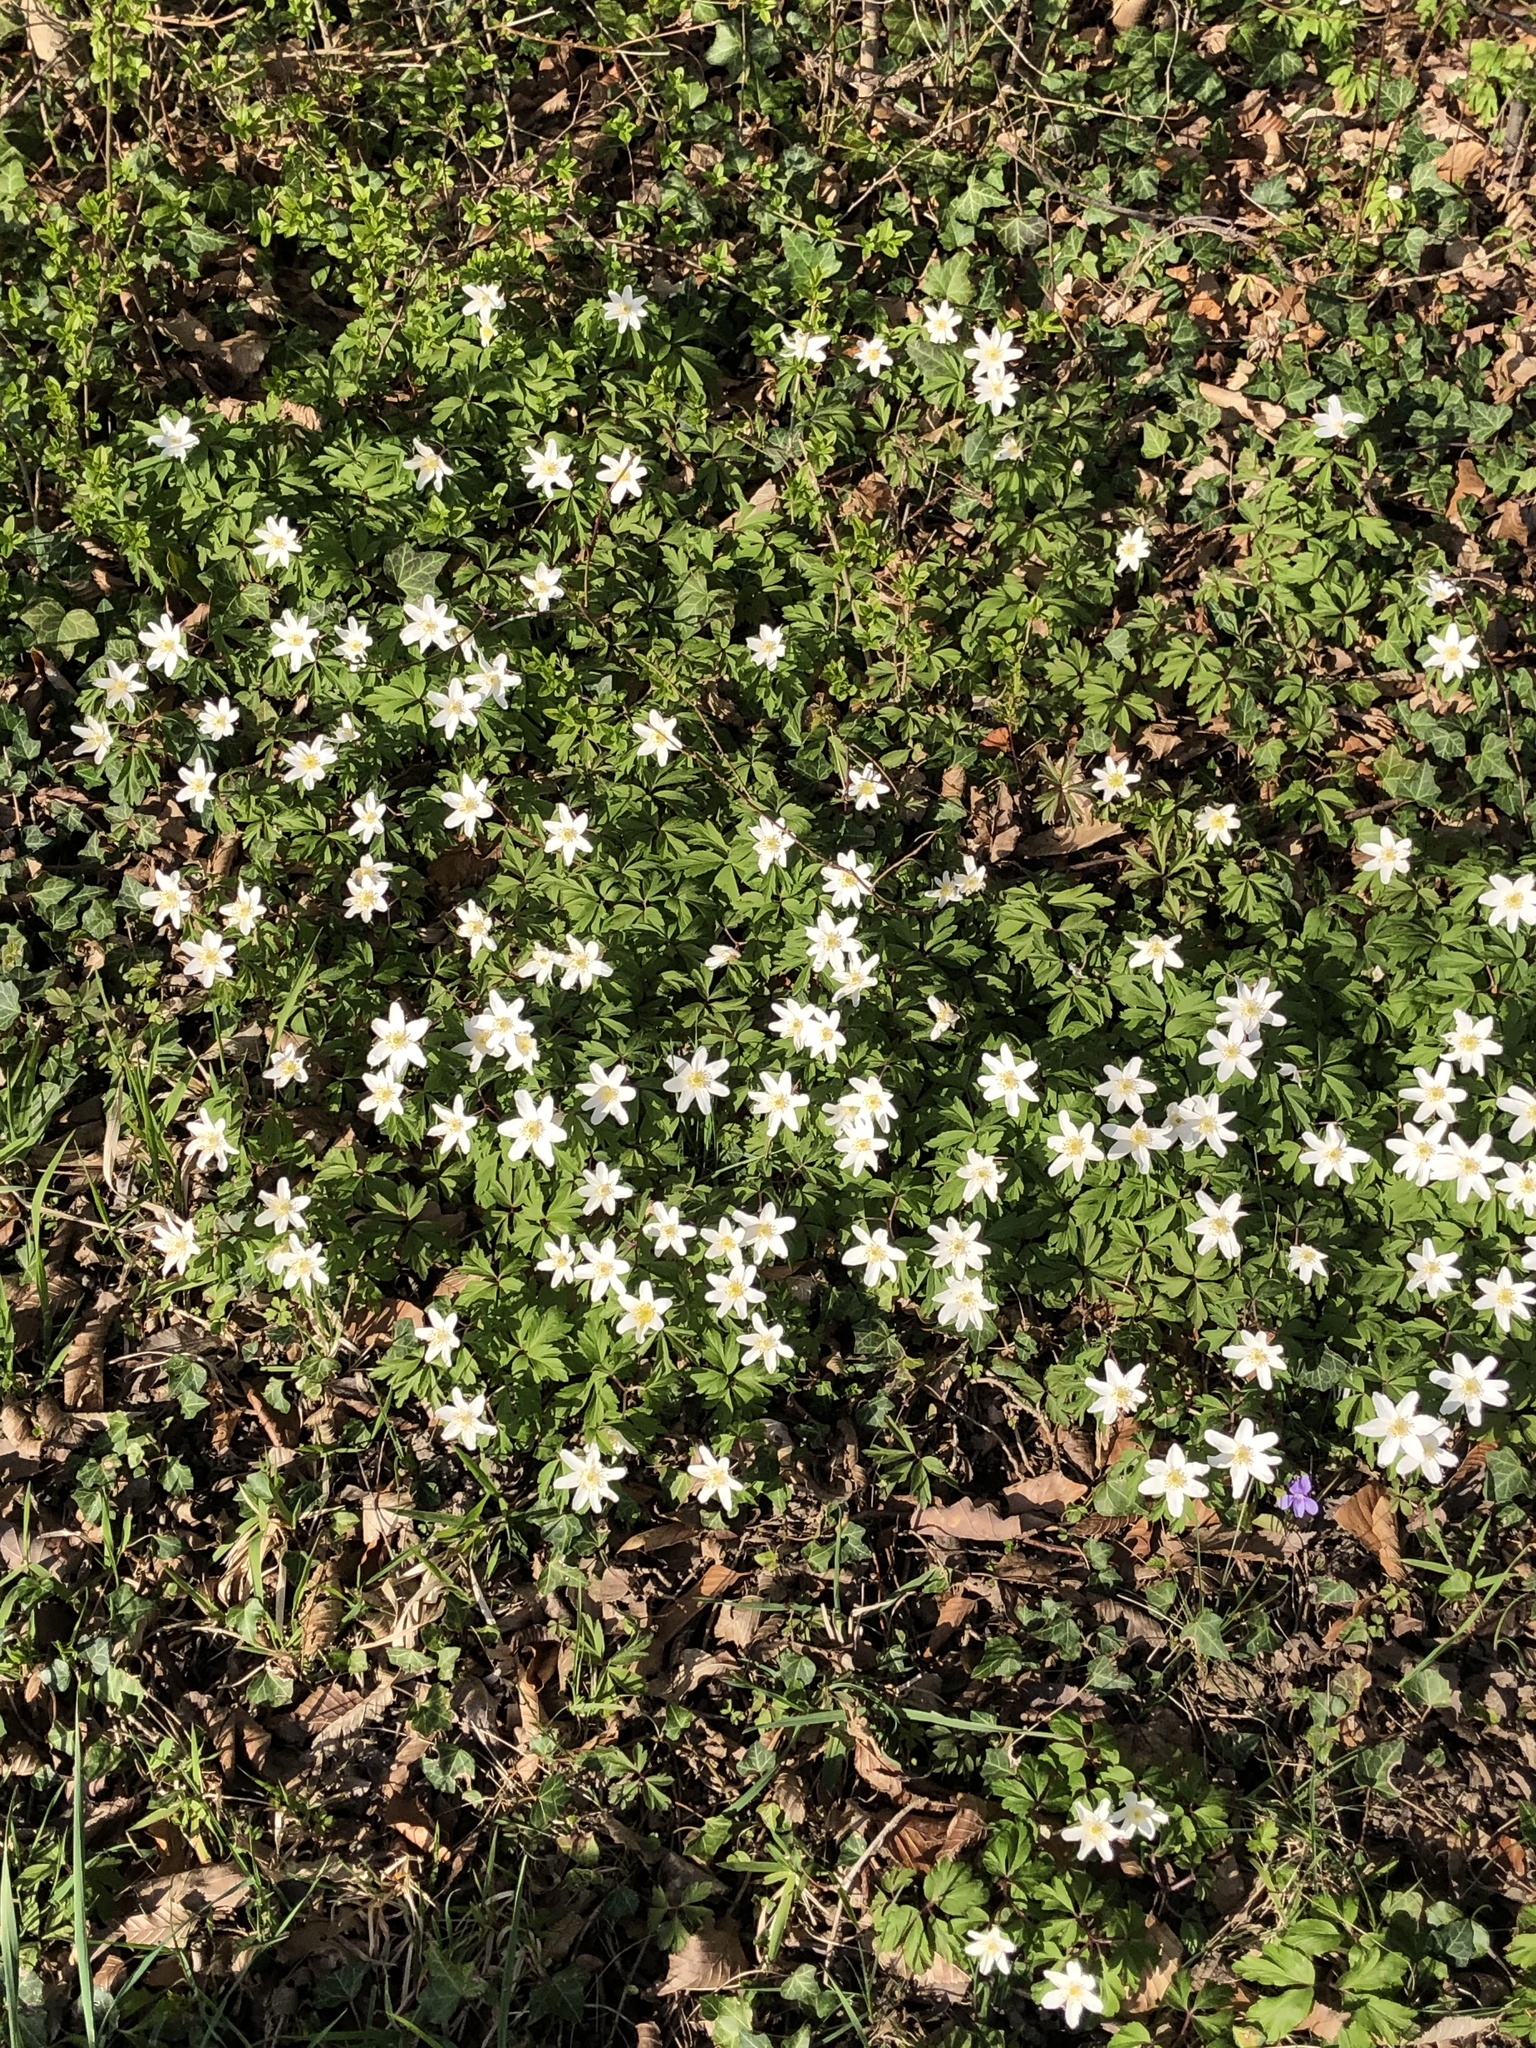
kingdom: Plantae
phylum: Tracheophyta
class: Magnoliopsida
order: Ranunculales
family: Ranunculaceae
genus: Anemone
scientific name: Anemone nemorosa
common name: Wood anemone
